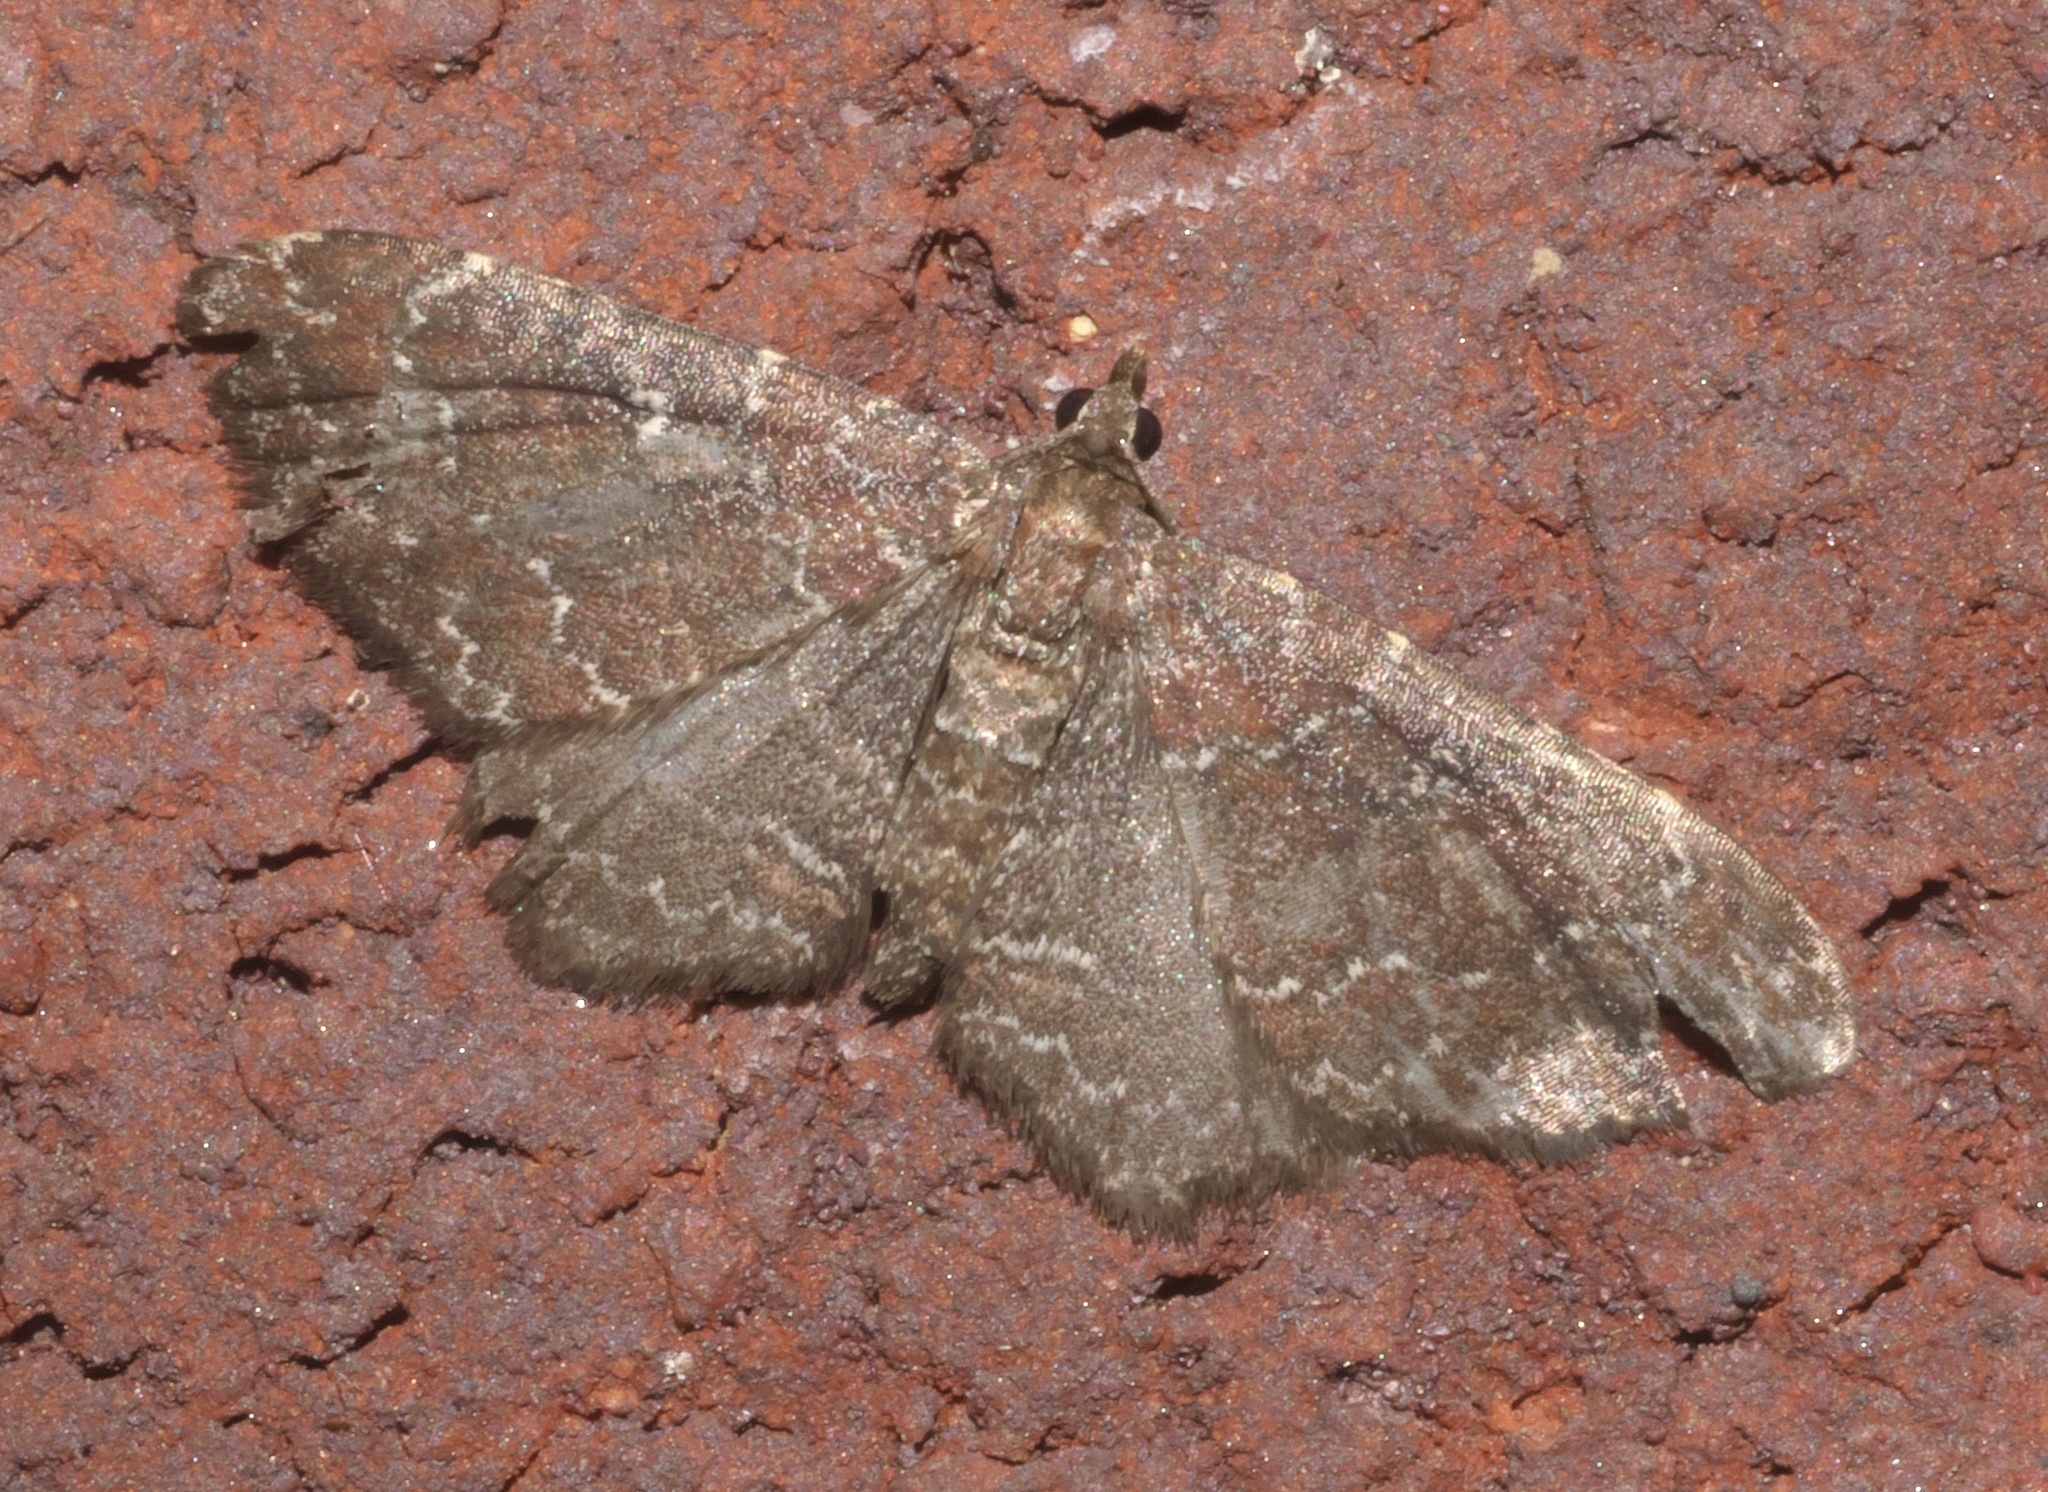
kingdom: Animalia
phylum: Arthropoda
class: Insecta
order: Lepidoptera
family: Geometridae
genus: Orthonama
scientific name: Orthonama obstipata
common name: The gem
